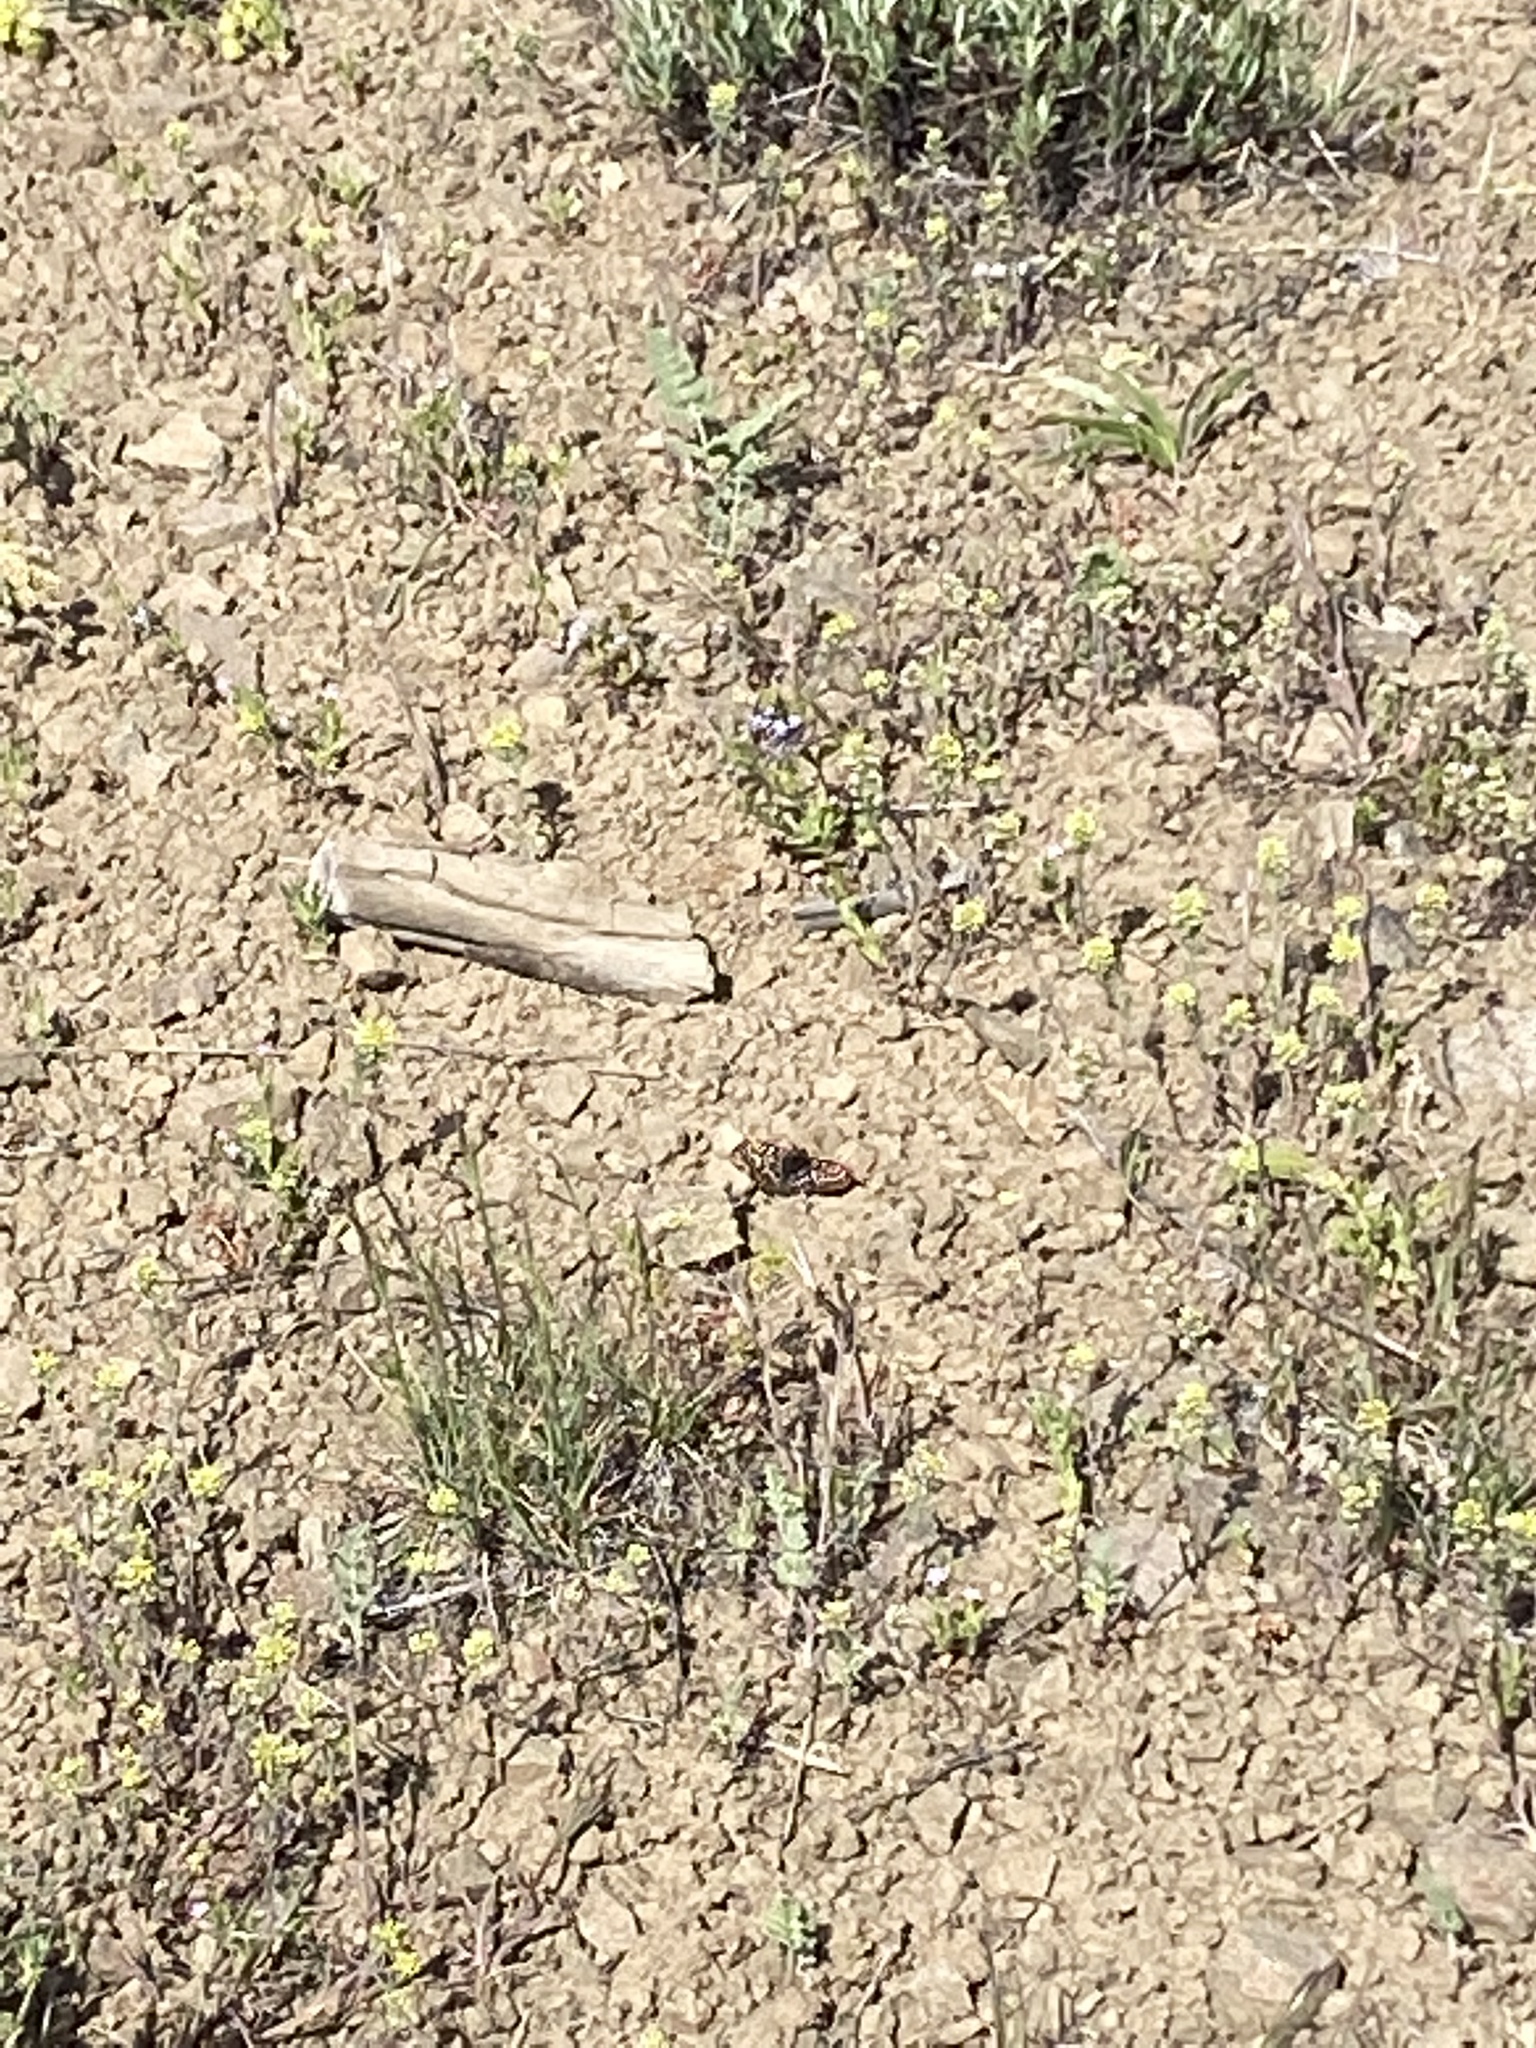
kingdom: Animalia
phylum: Arthropoda
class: Insecta
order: Lepidoptera
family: Nymphalidae
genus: Polygonia
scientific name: Polygonia gracilis
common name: Hoary comma
